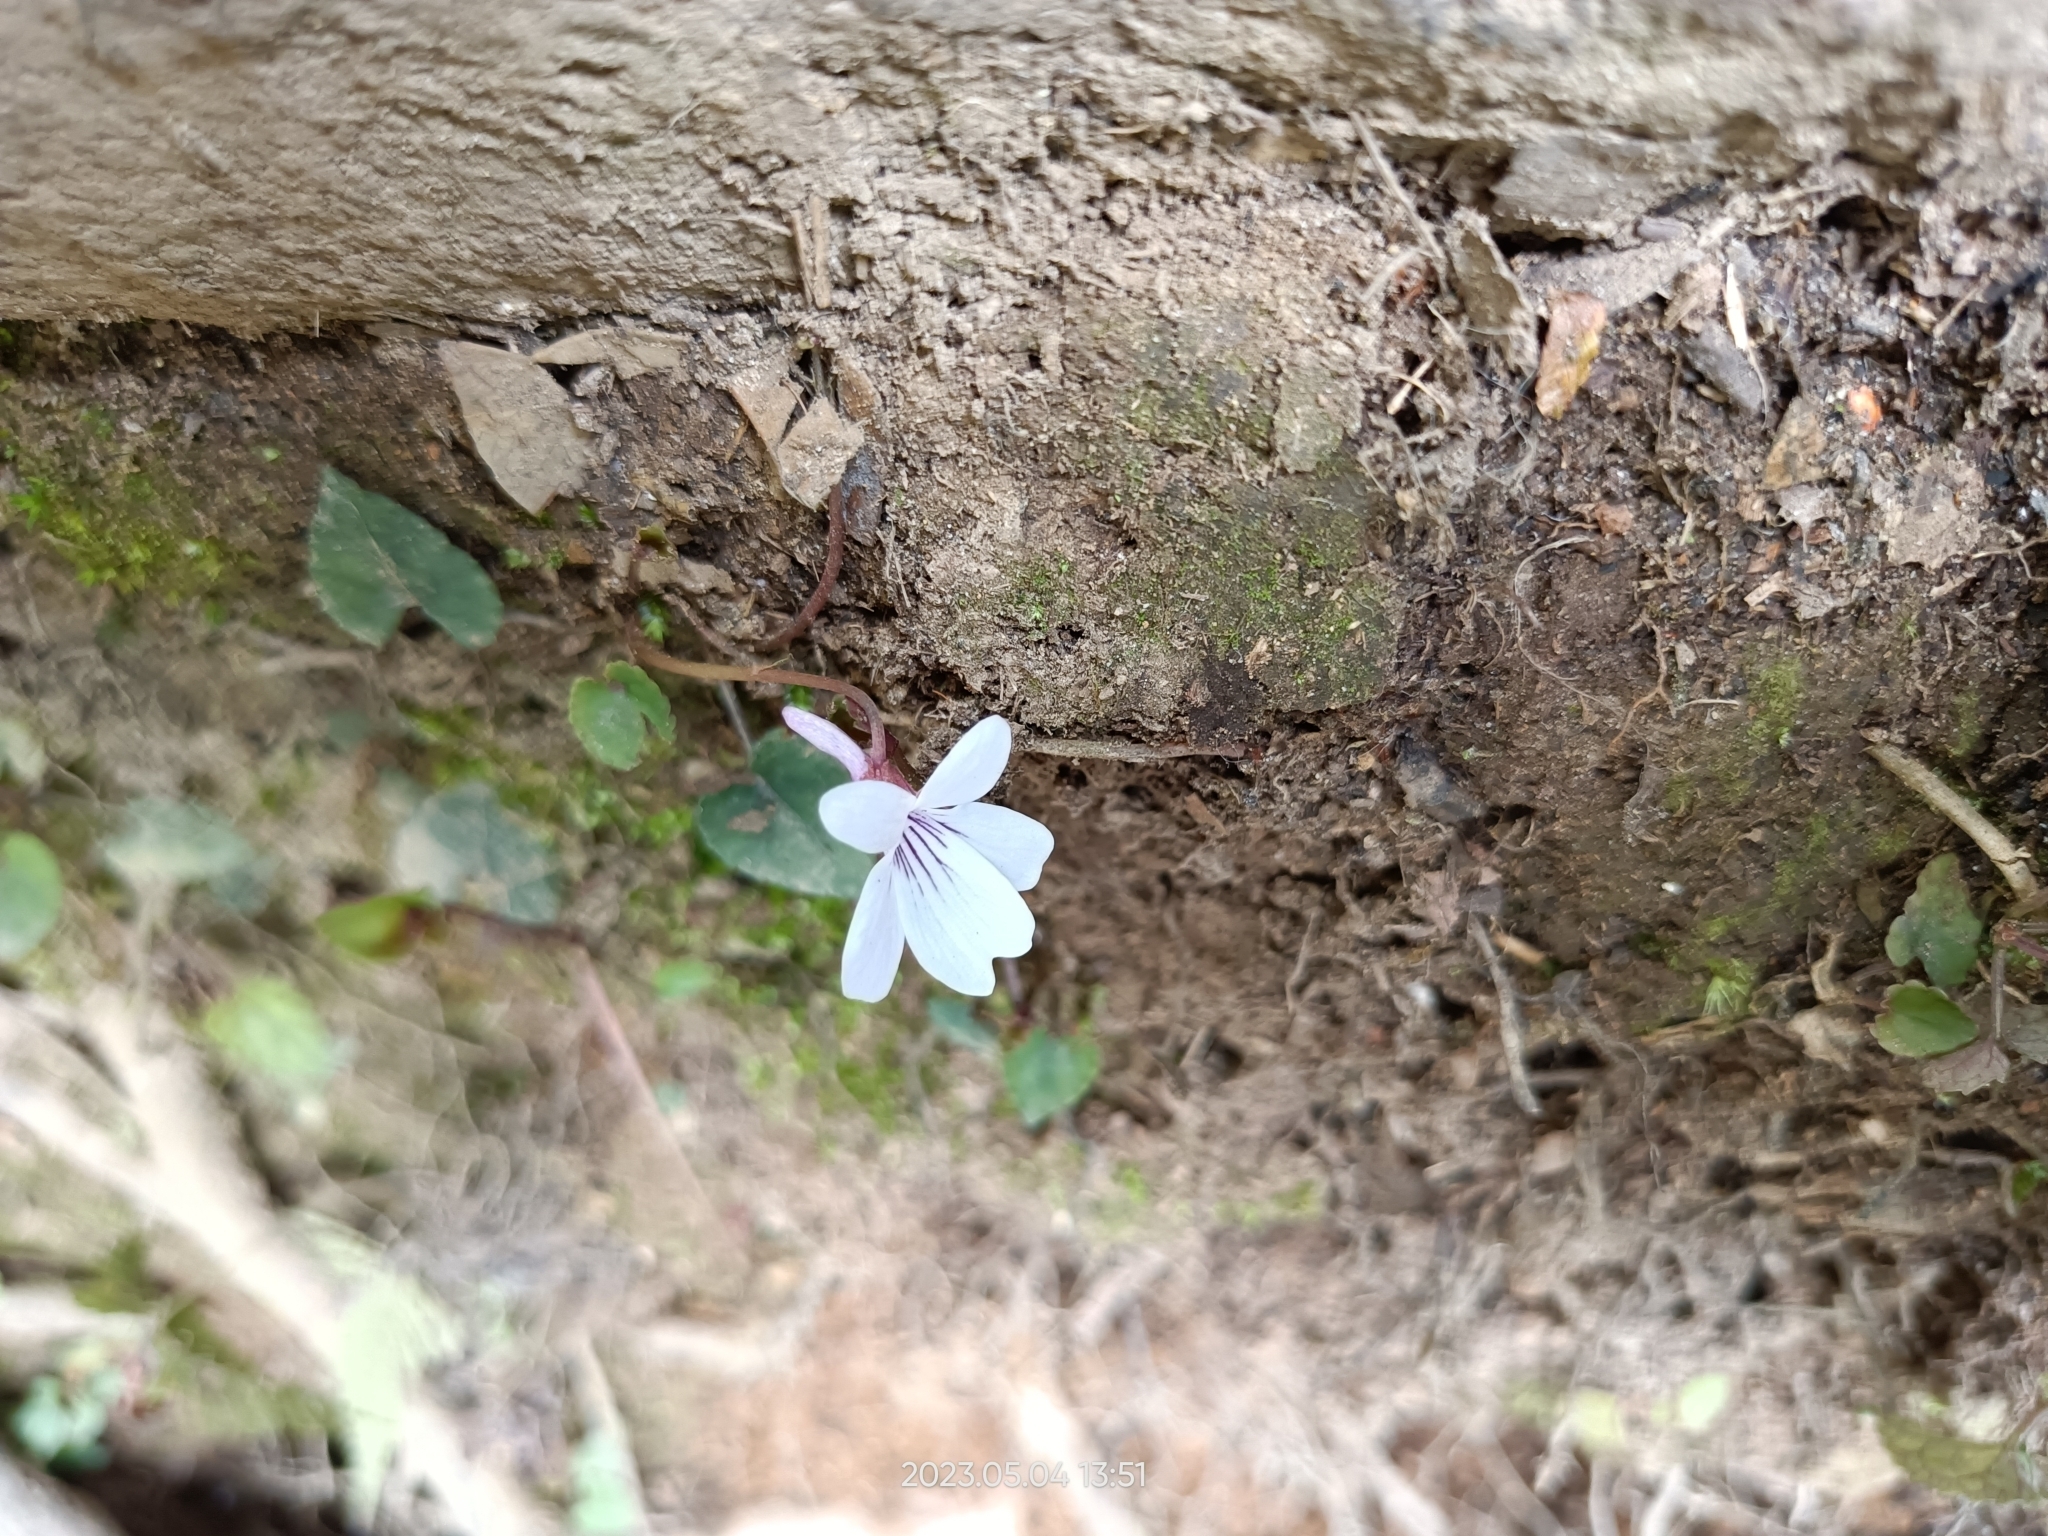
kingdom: Plantae
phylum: Tracheophyta
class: Magnoliopsida
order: Malpighiales
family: Violaceae
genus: Viola
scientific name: Viola formosana
